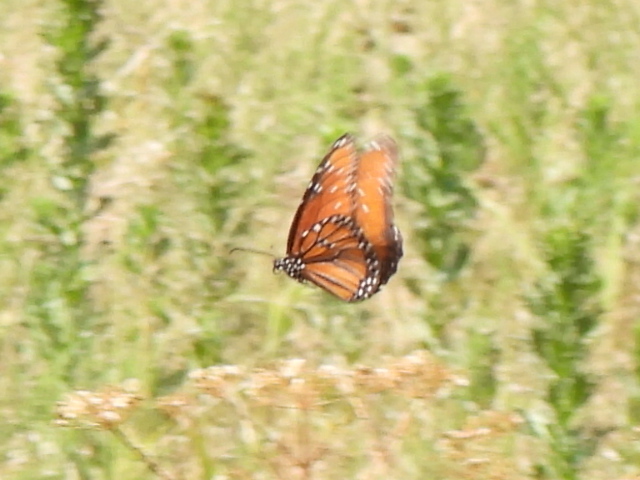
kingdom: Animalia
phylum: Arthropoda
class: Insecta
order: Lepidoptera
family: Nymphalidae
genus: Danaus
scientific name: Danaus gilippus
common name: Queen
